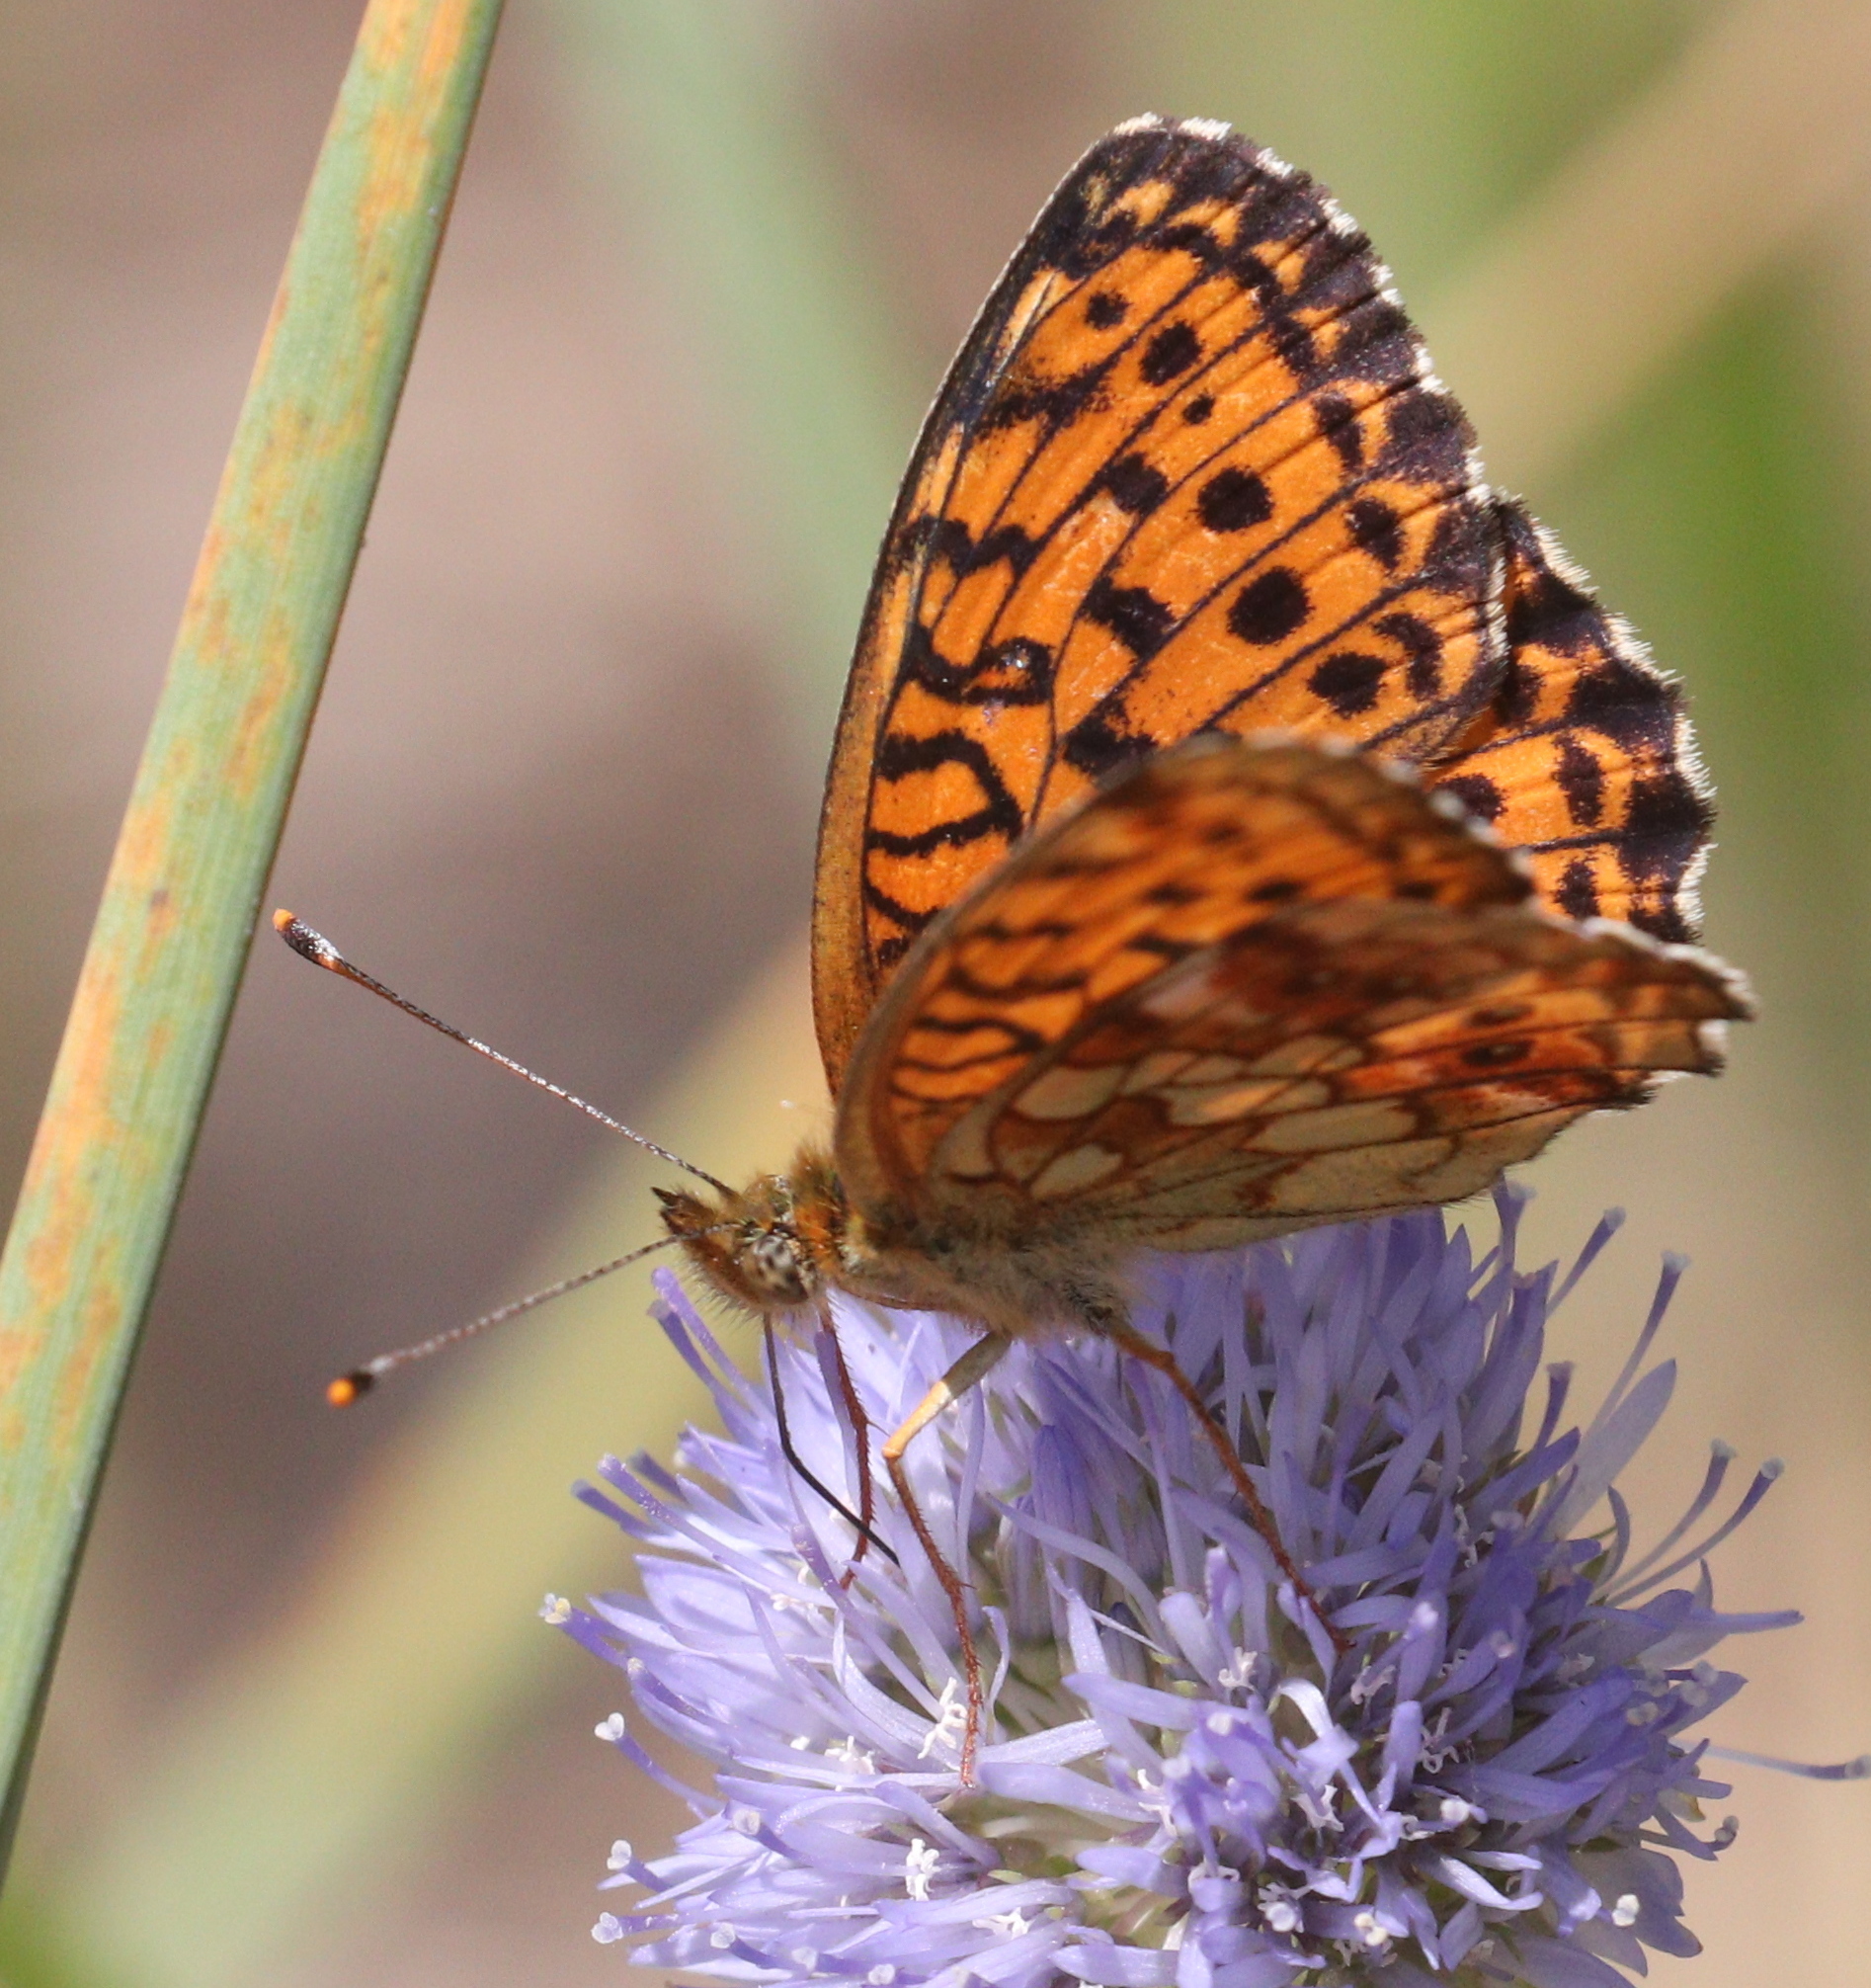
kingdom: Animalia
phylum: Arthropoda
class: Insecta
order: Lepidoptera
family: Nymphalidae
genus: Brenthis
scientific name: Brenthis ino
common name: Lesser marbled fritillary
